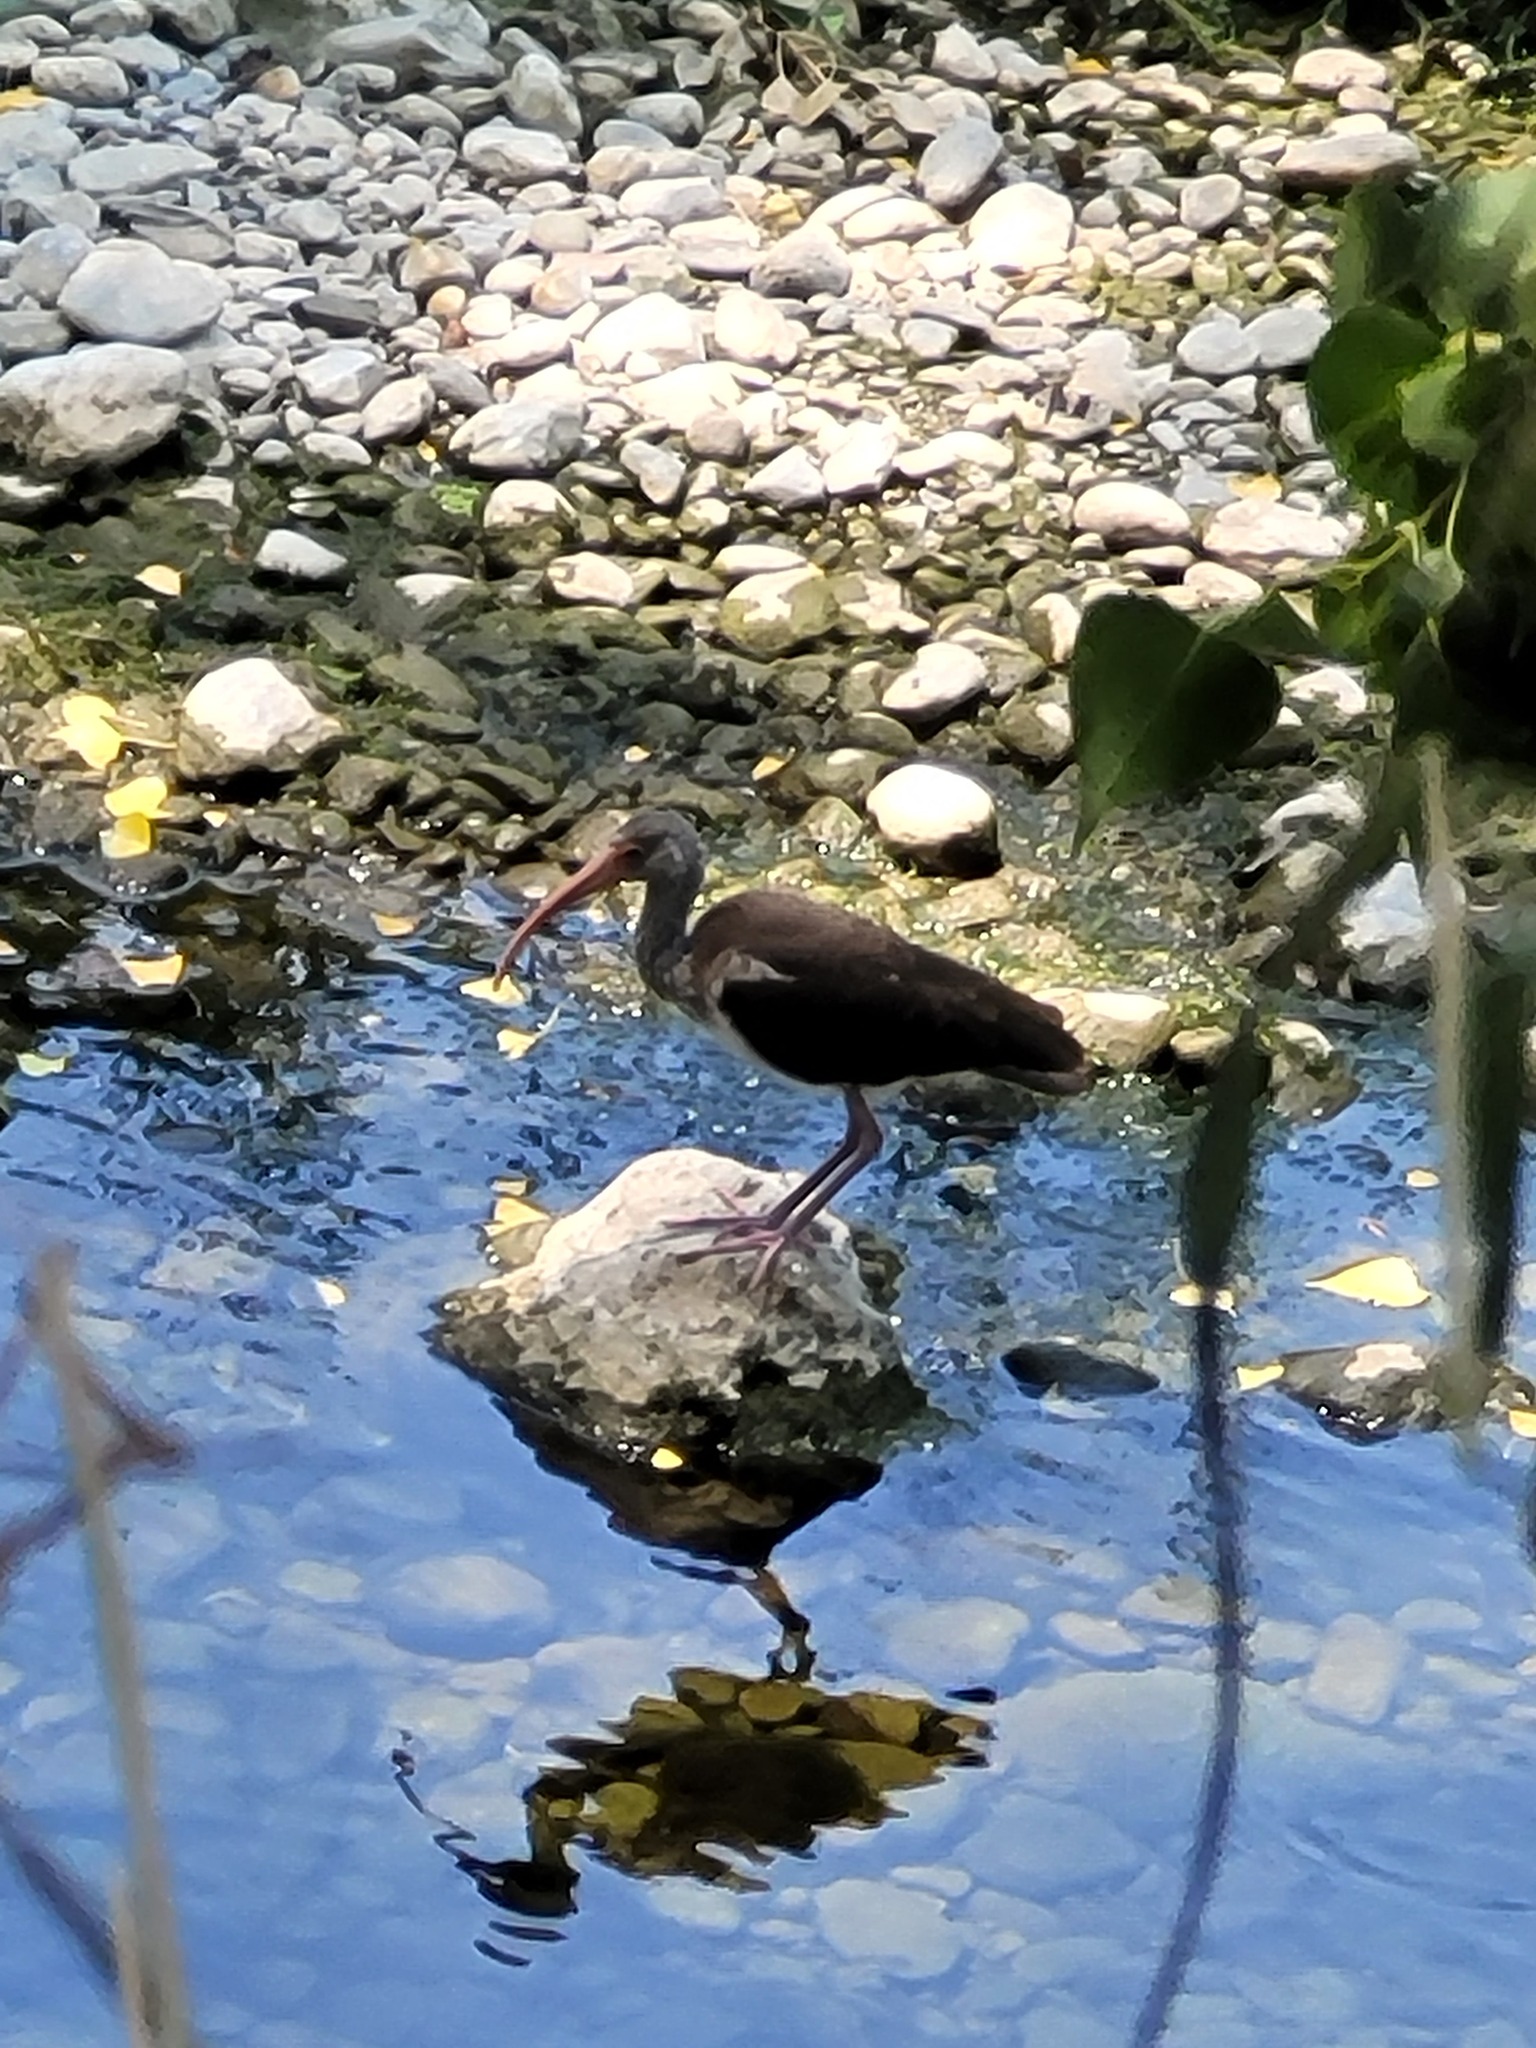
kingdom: Animalia
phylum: Chordata
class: Aves
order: Pelecaniformes
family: Threskiornithidae
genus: Eudocimus
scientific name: Eudocimus albus
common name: White ibis
